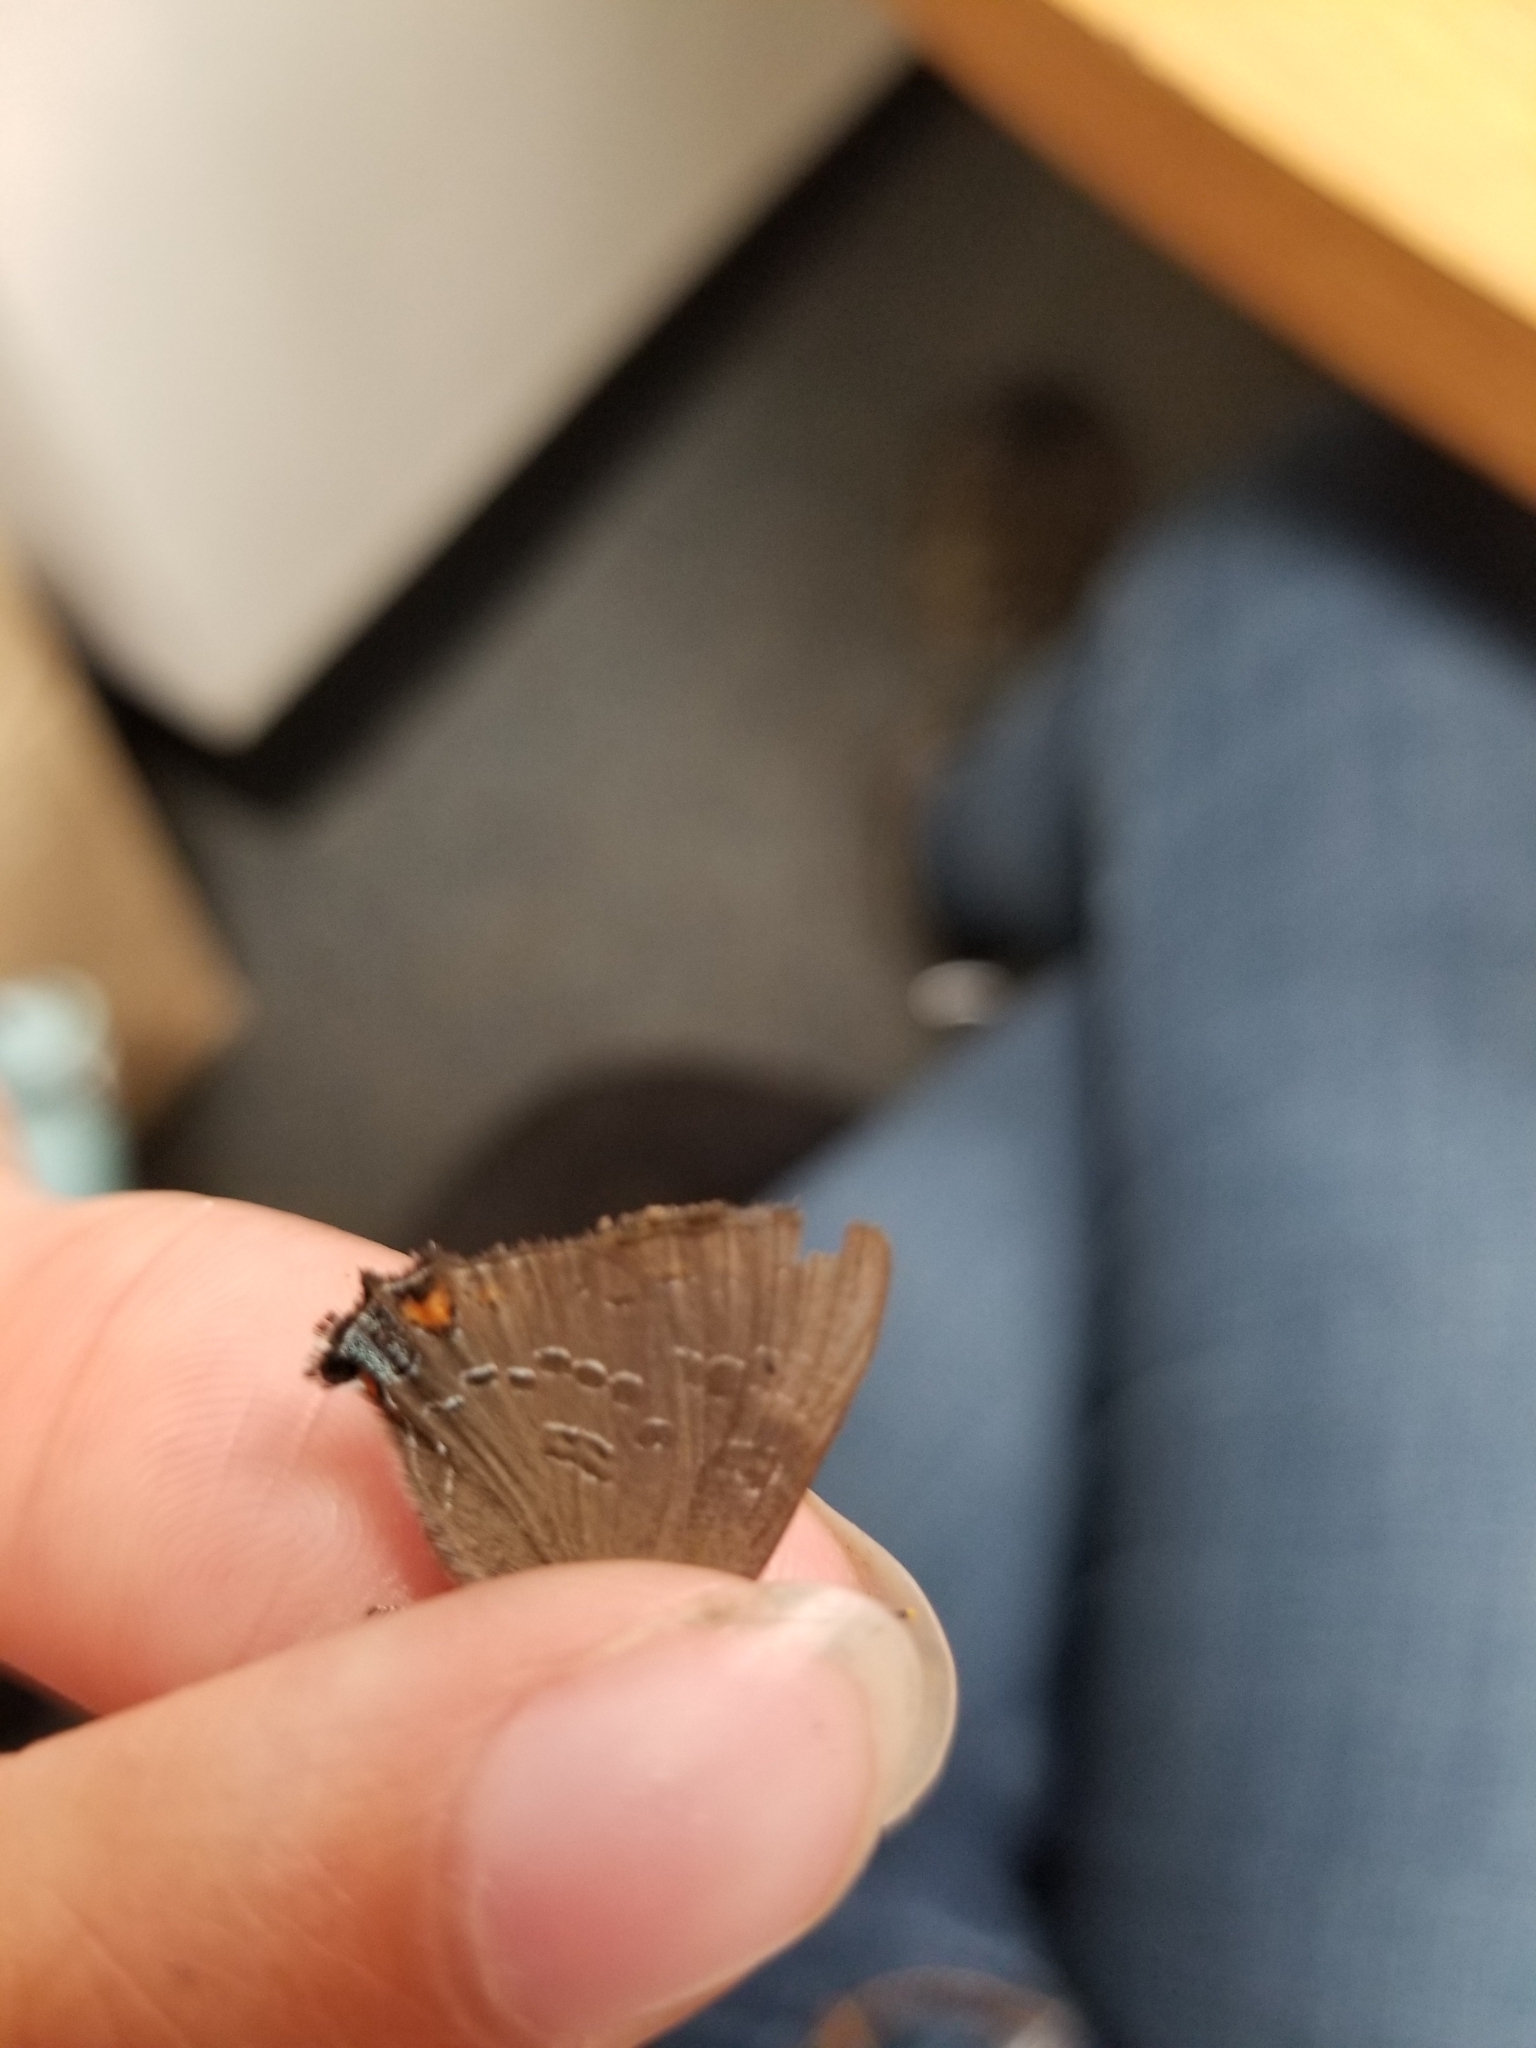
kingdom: Animalia
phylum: Arthropoda
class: Insecta
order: Lepidoptera
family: Lycaenidae
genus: Satyrium
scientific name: Satyrium calanus
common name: Banded hairstreak
